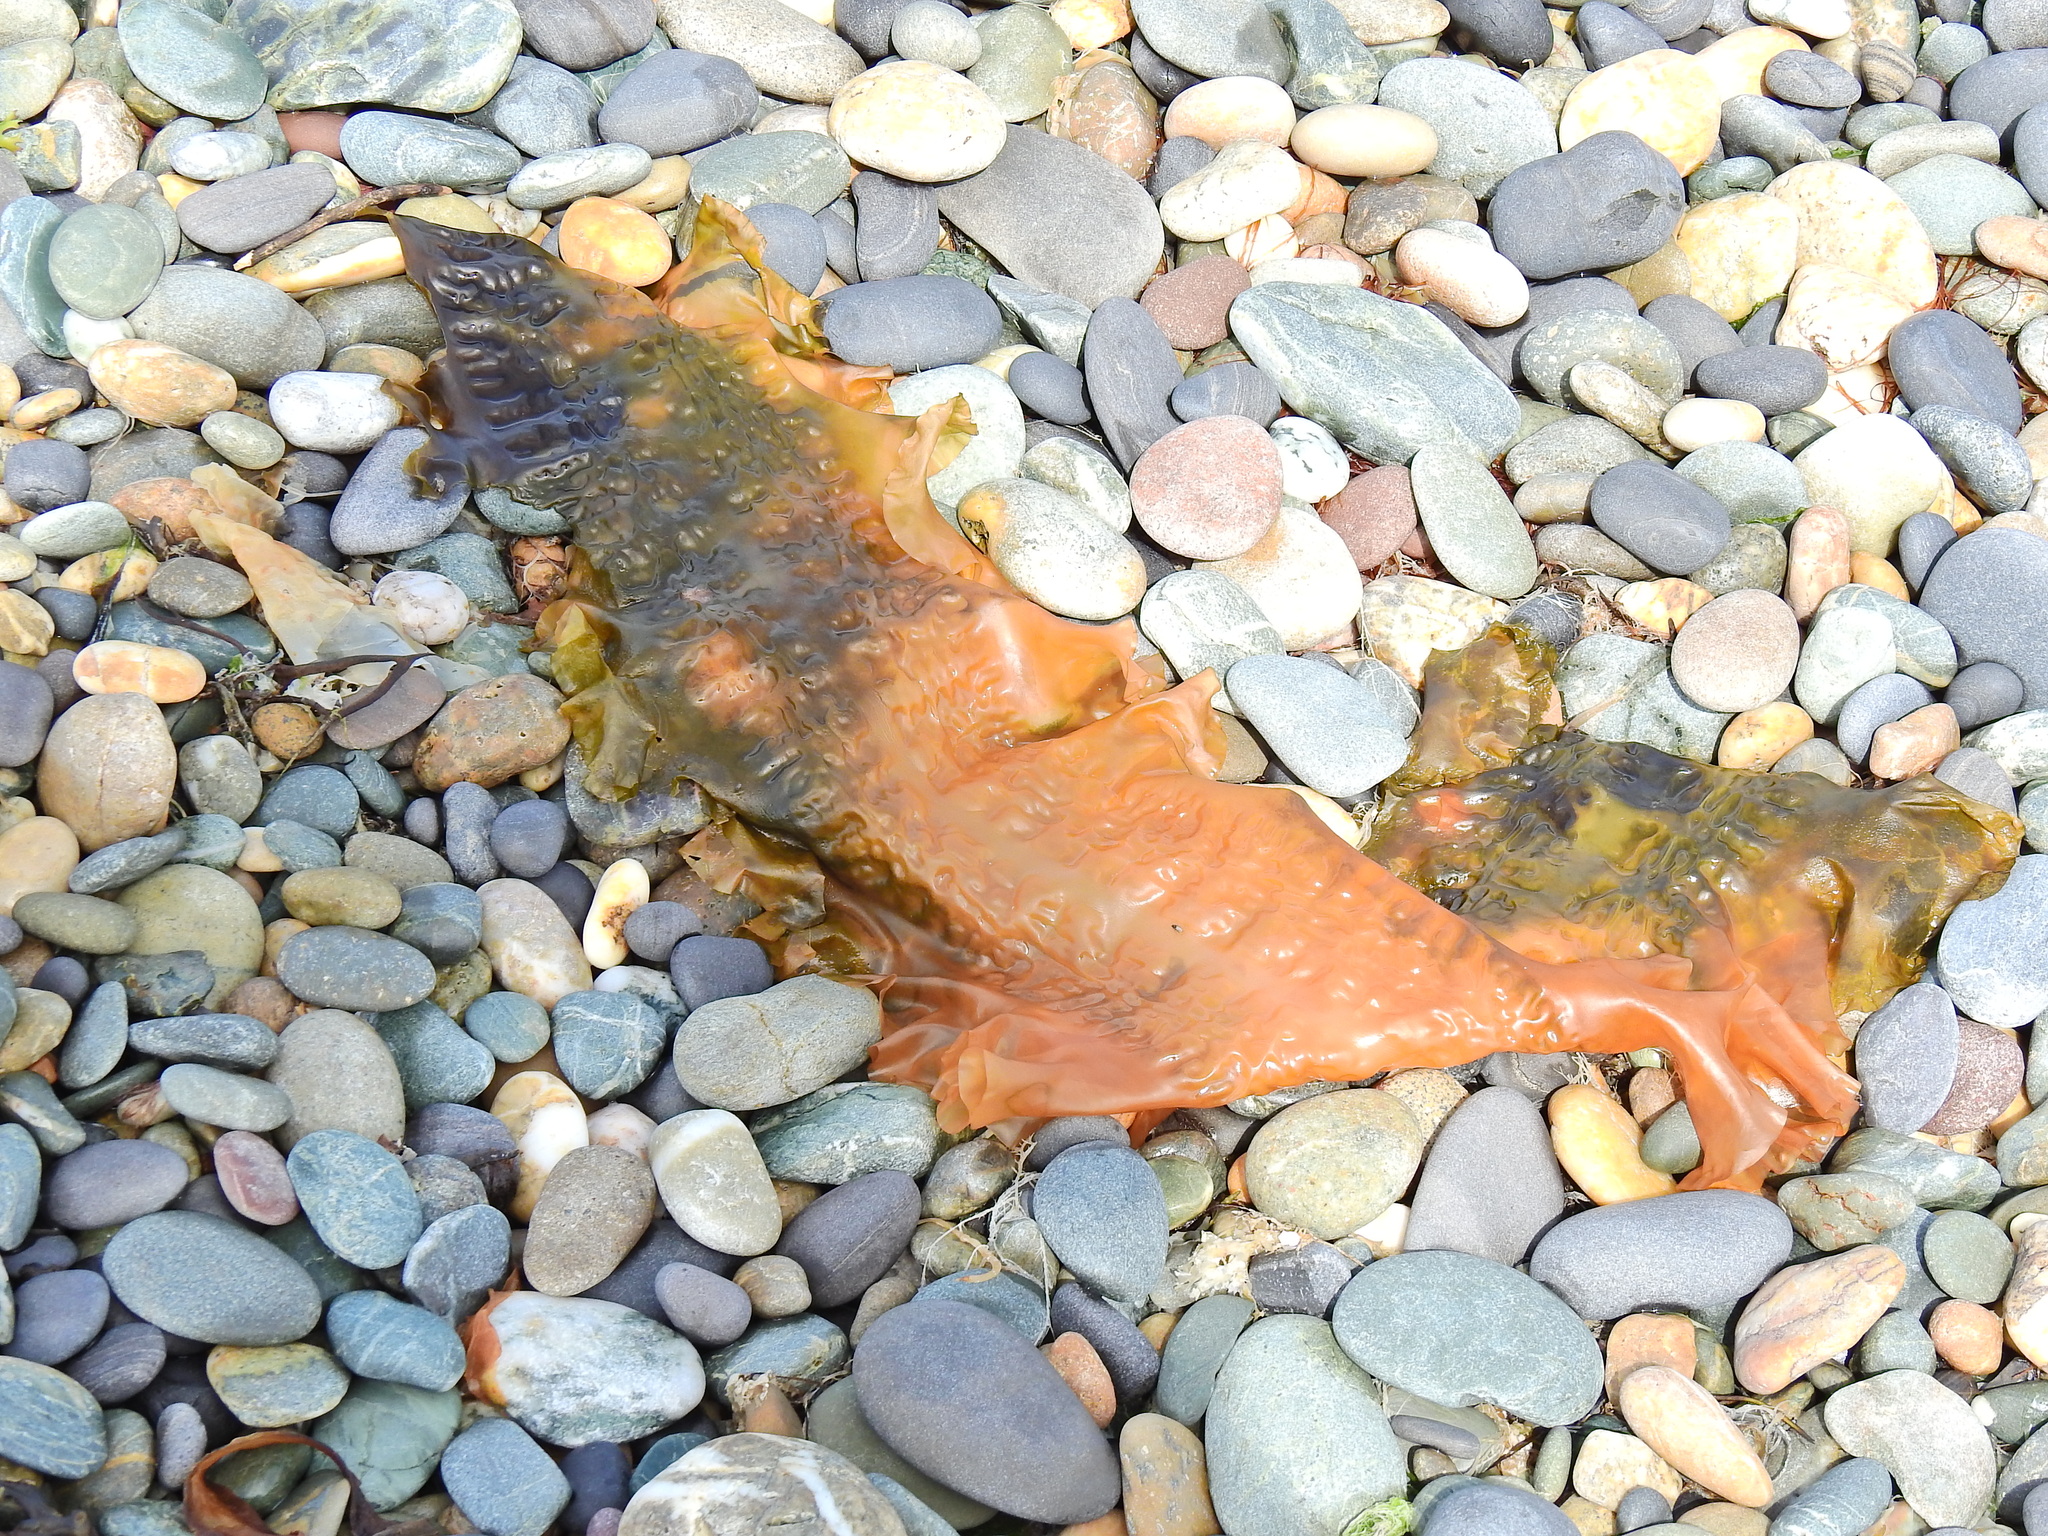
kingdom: Chromista
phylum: Ochrophyta
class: Phaeophyceae
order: Laminariales
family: Laminariaceae
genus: Saccharina
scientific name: Saccharina latissima
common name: Poor man's weather glass
